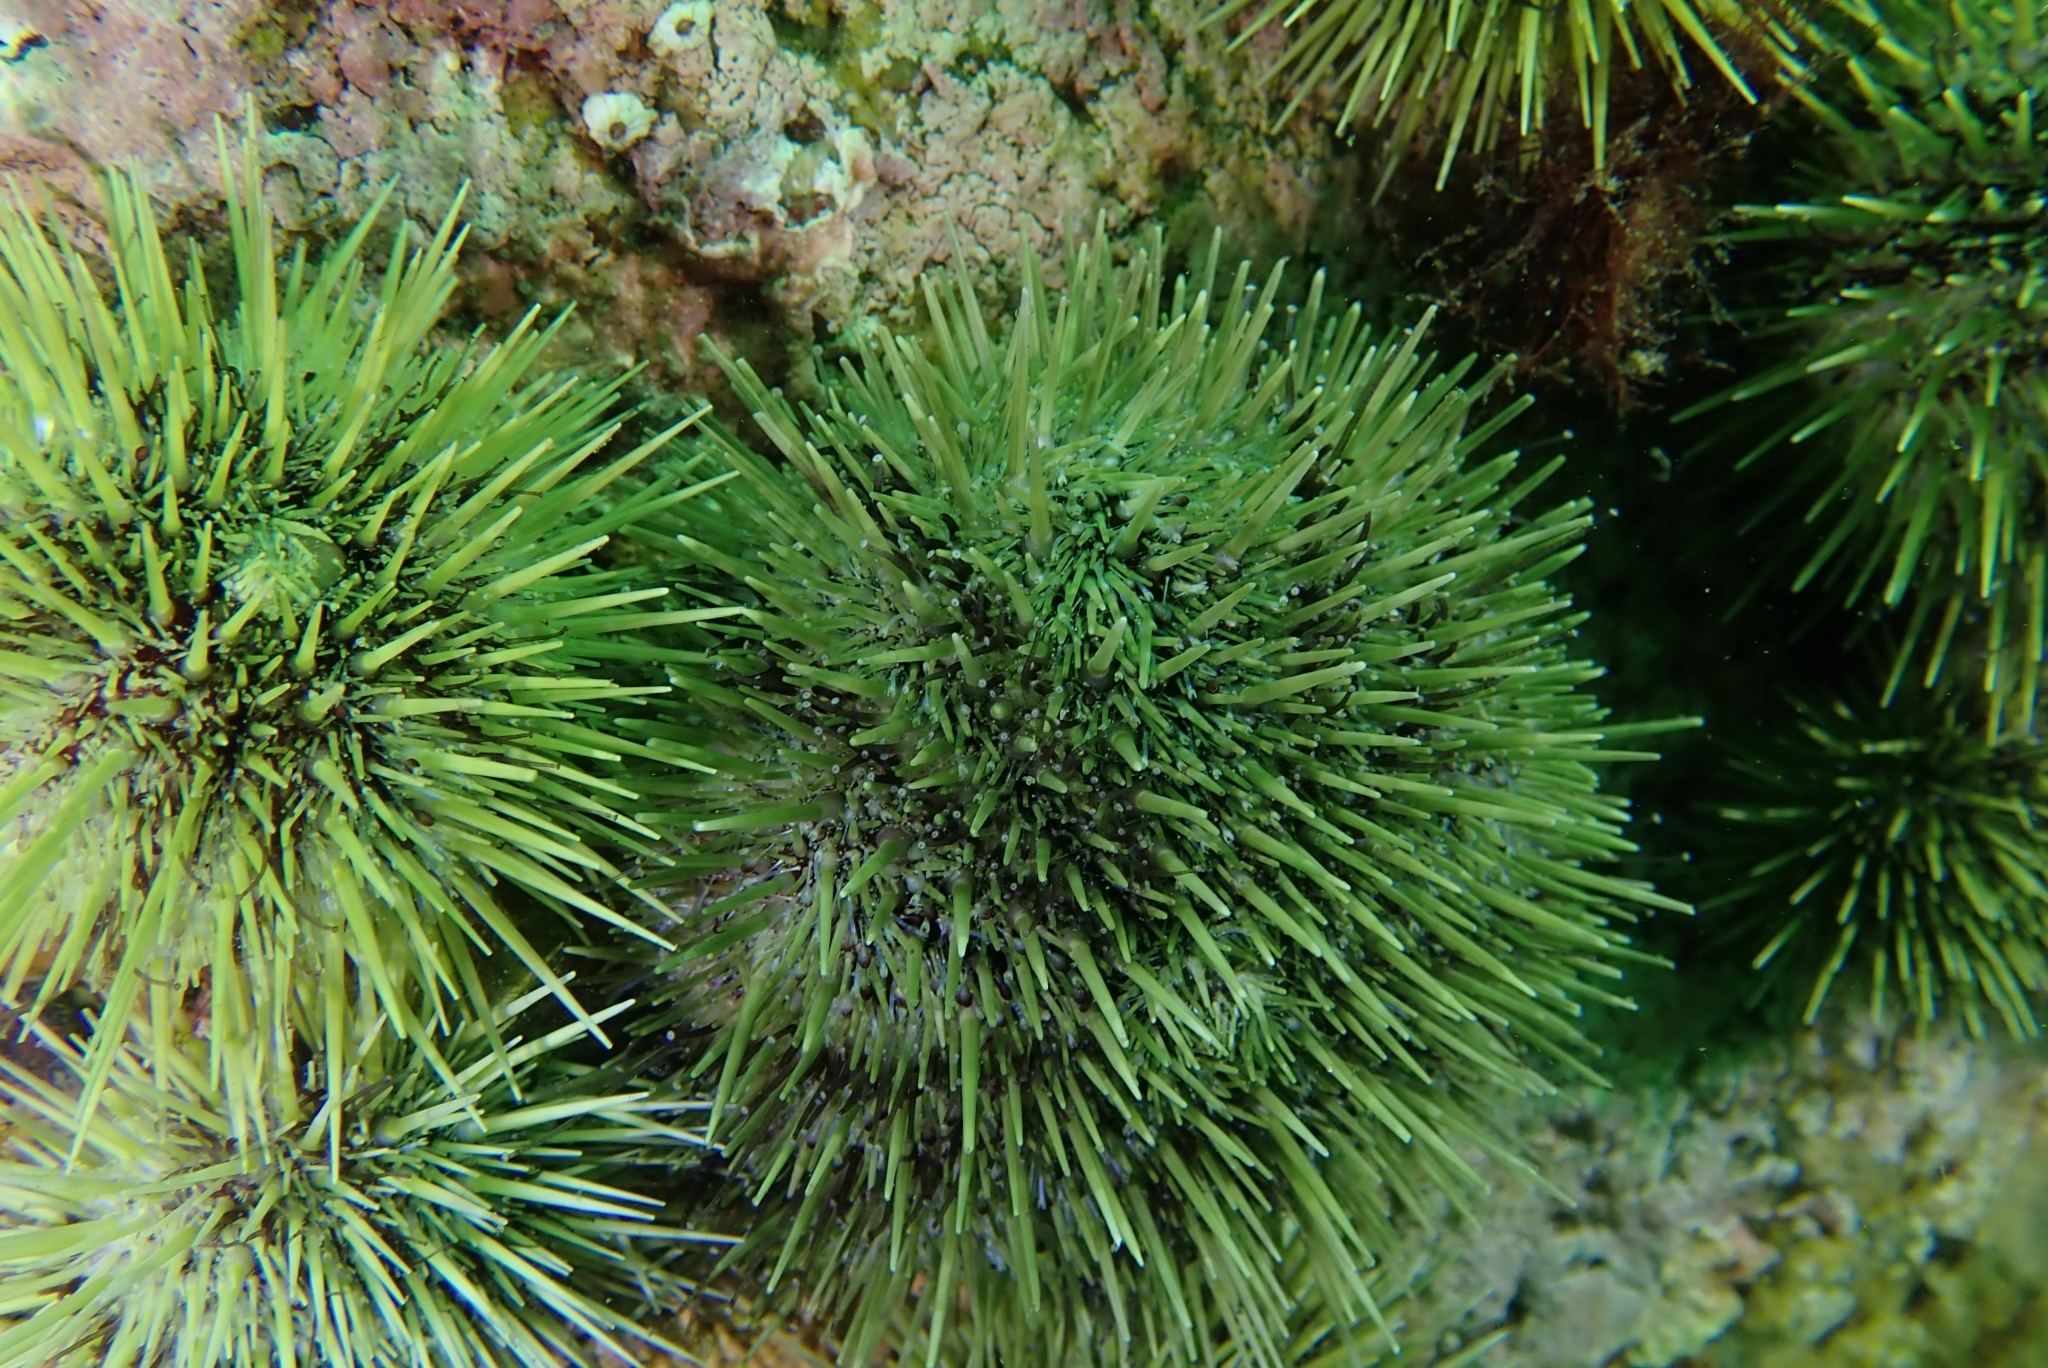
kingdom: Animalia
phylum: Echinodermata
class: Echinoidea
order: Camarodonta
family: Strongylocentrotidae
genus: Strongylocentrotus
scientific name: Strongylocentrotus droebachiensis
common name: Northern sea urchin
